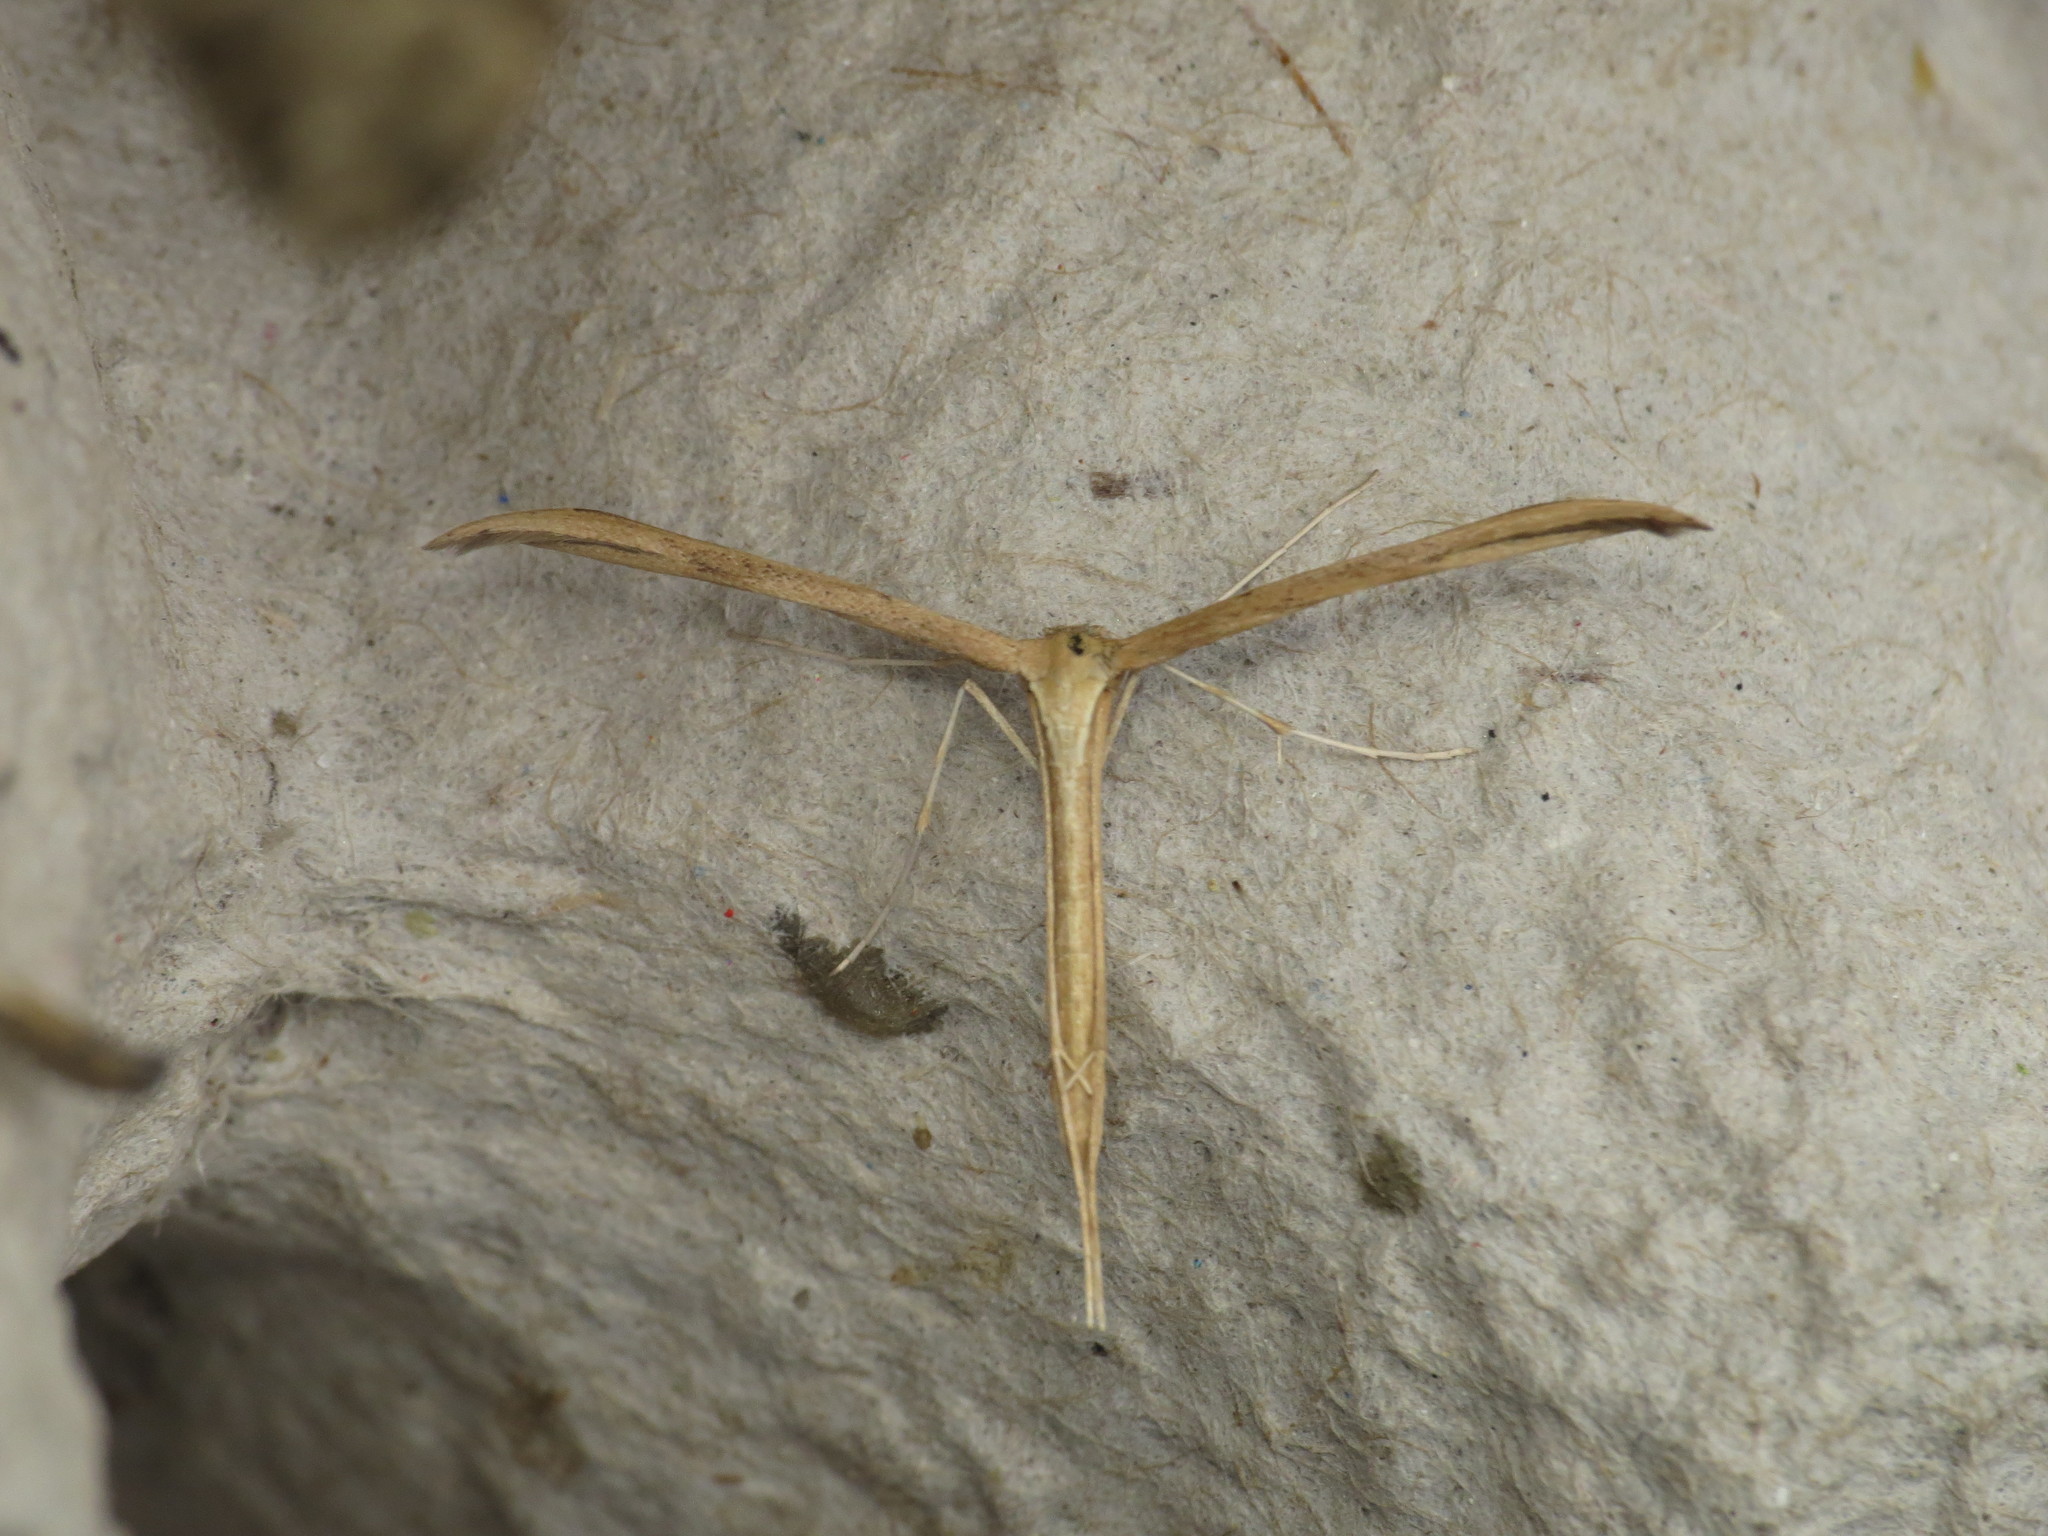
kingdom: Animalia
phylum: Arthropoda
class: Insecta
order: Lepidoptera
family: Pterophoridae
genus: Emmelina
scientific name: Emmelina monodactyla
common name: Common plume
